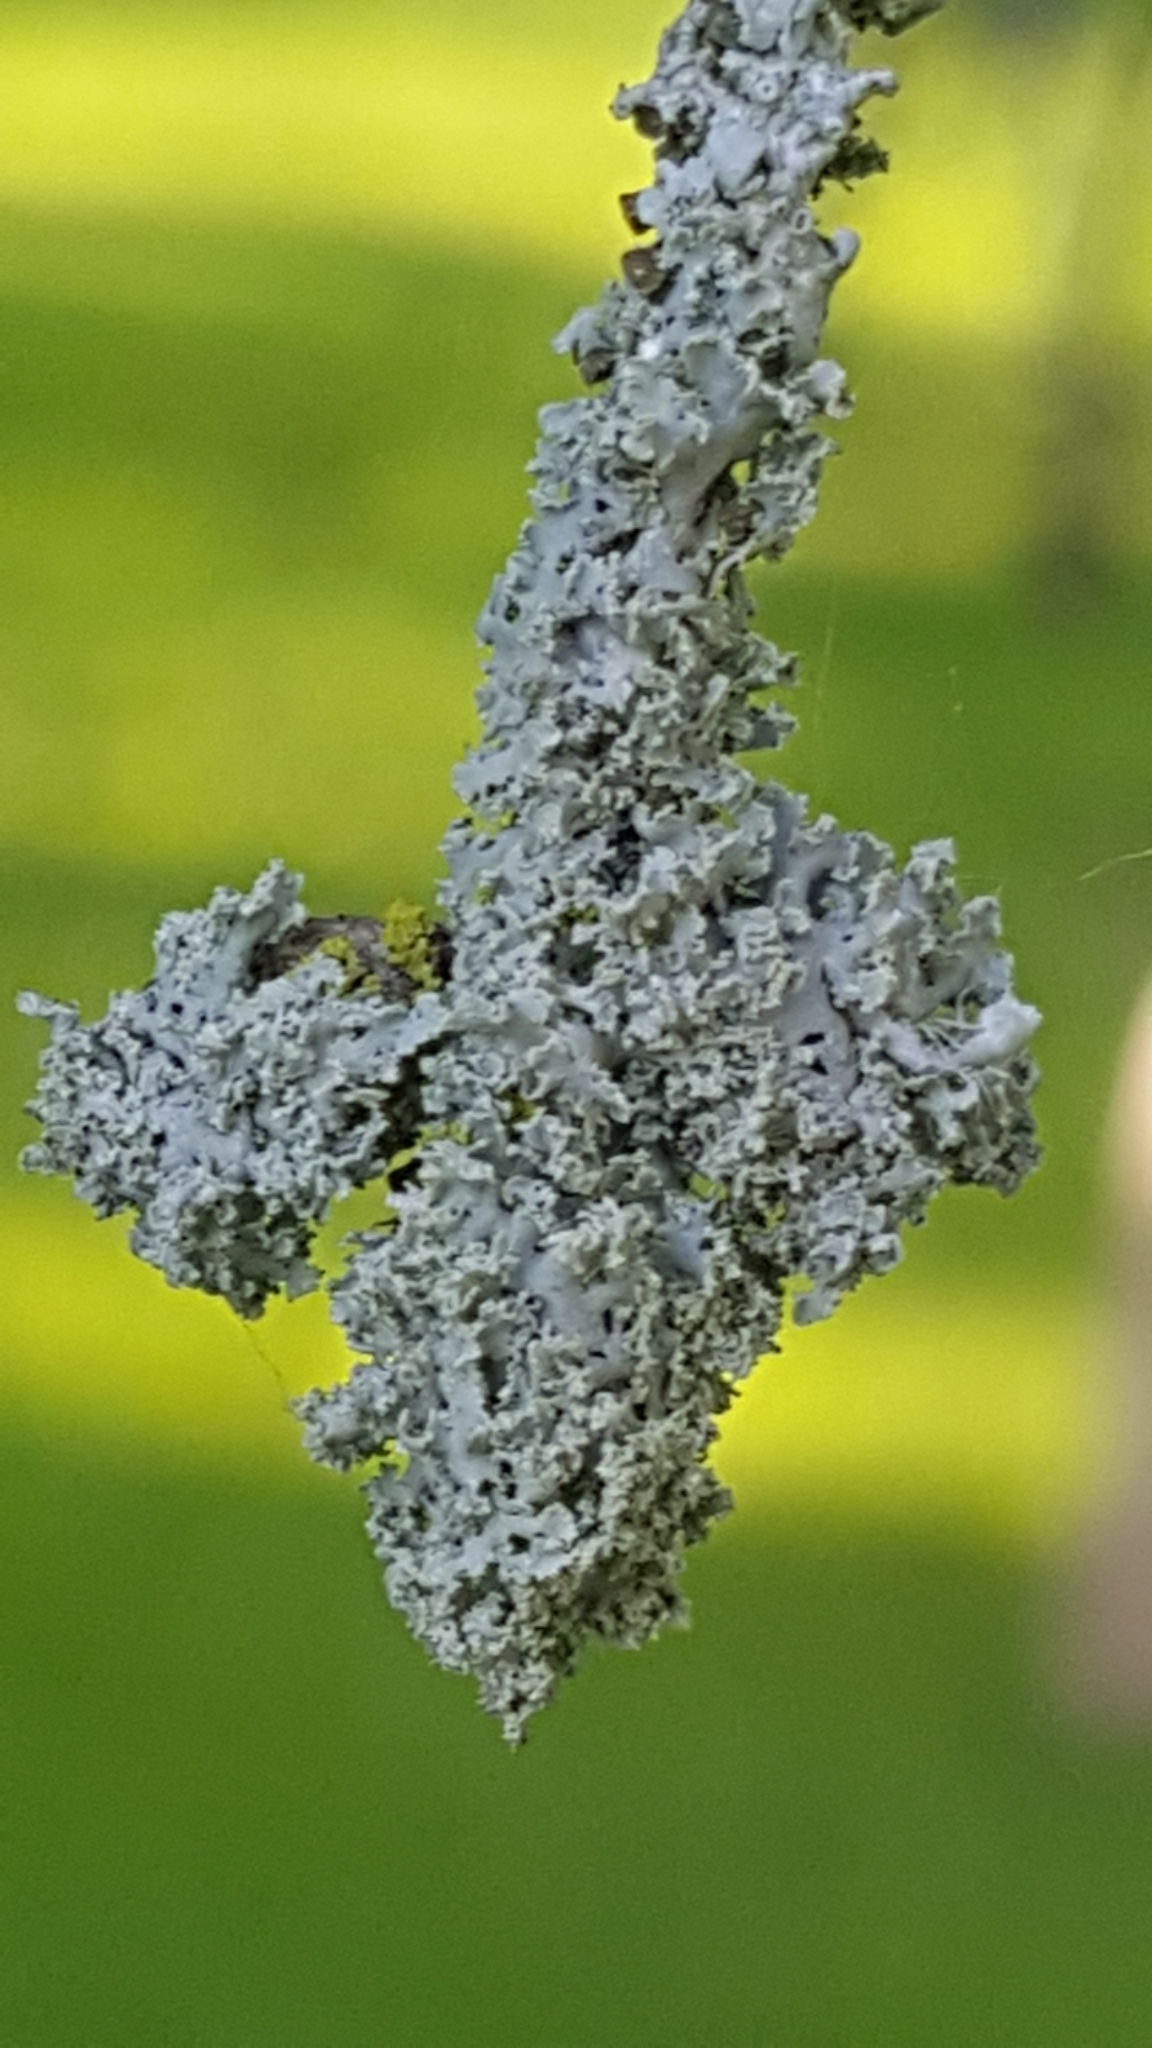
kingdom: Fungi
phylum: Ascomycota
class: Lecanoromycetes
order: Caliciales
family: Physciaceae
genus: Physcia
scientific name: Physcia millegrana
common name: Rosette lichen
